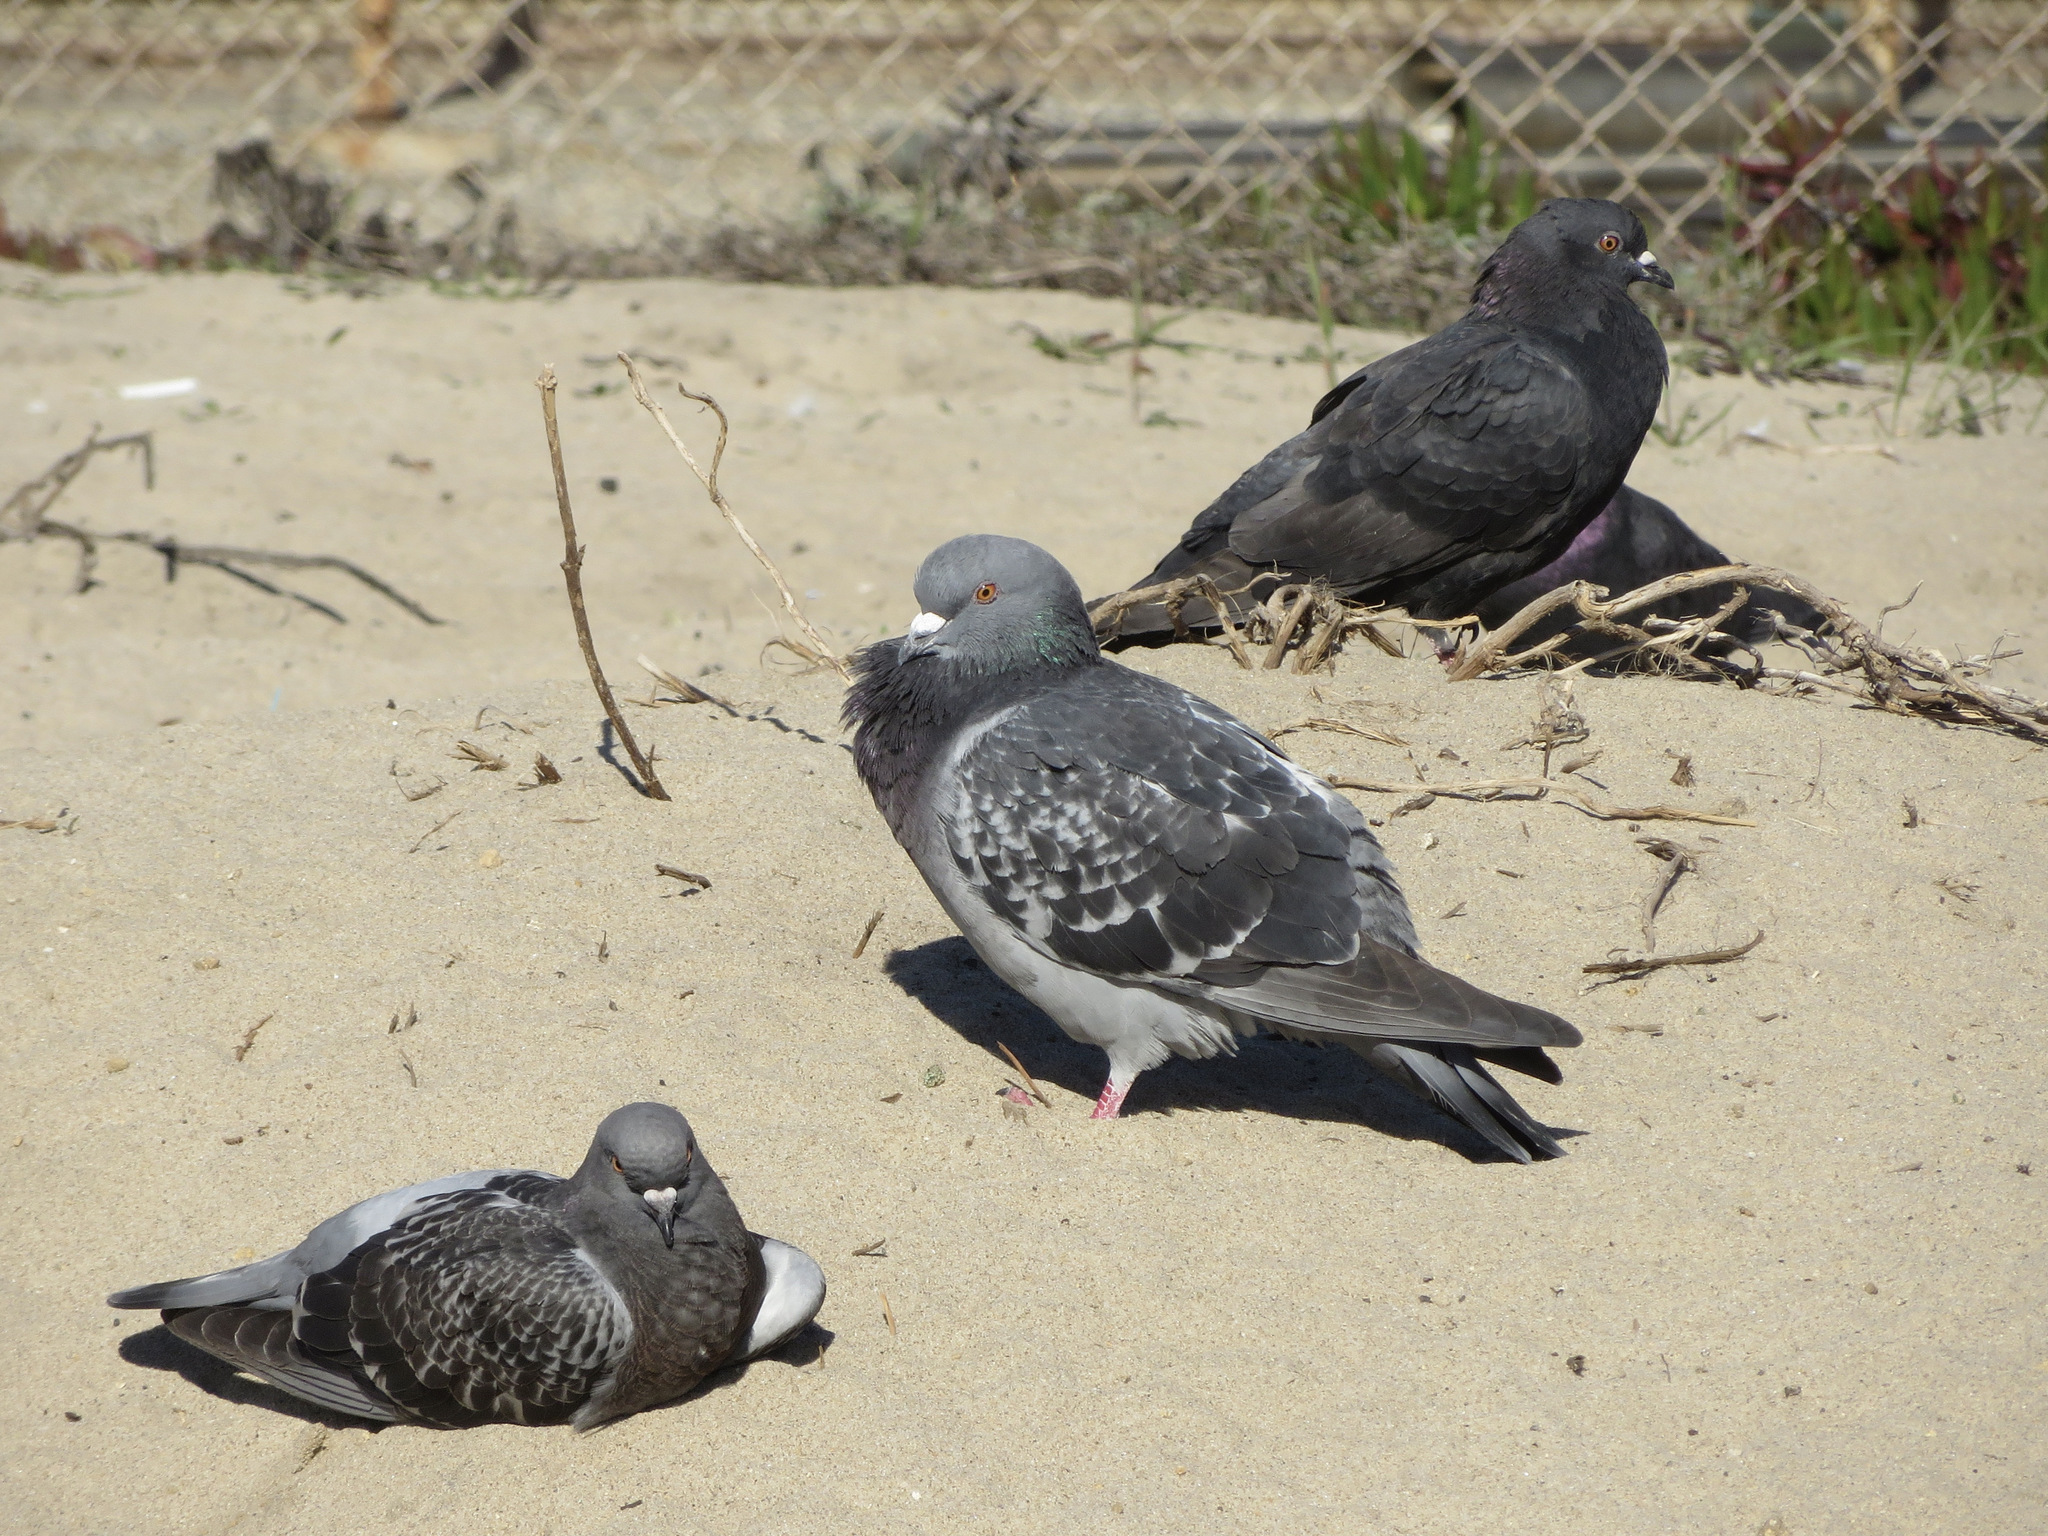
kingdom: Animalia
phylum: Chordata
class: Aves
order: Columbiformes
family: Columbidae
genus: Columba
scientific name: Columba livia
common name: Rock pigeon
